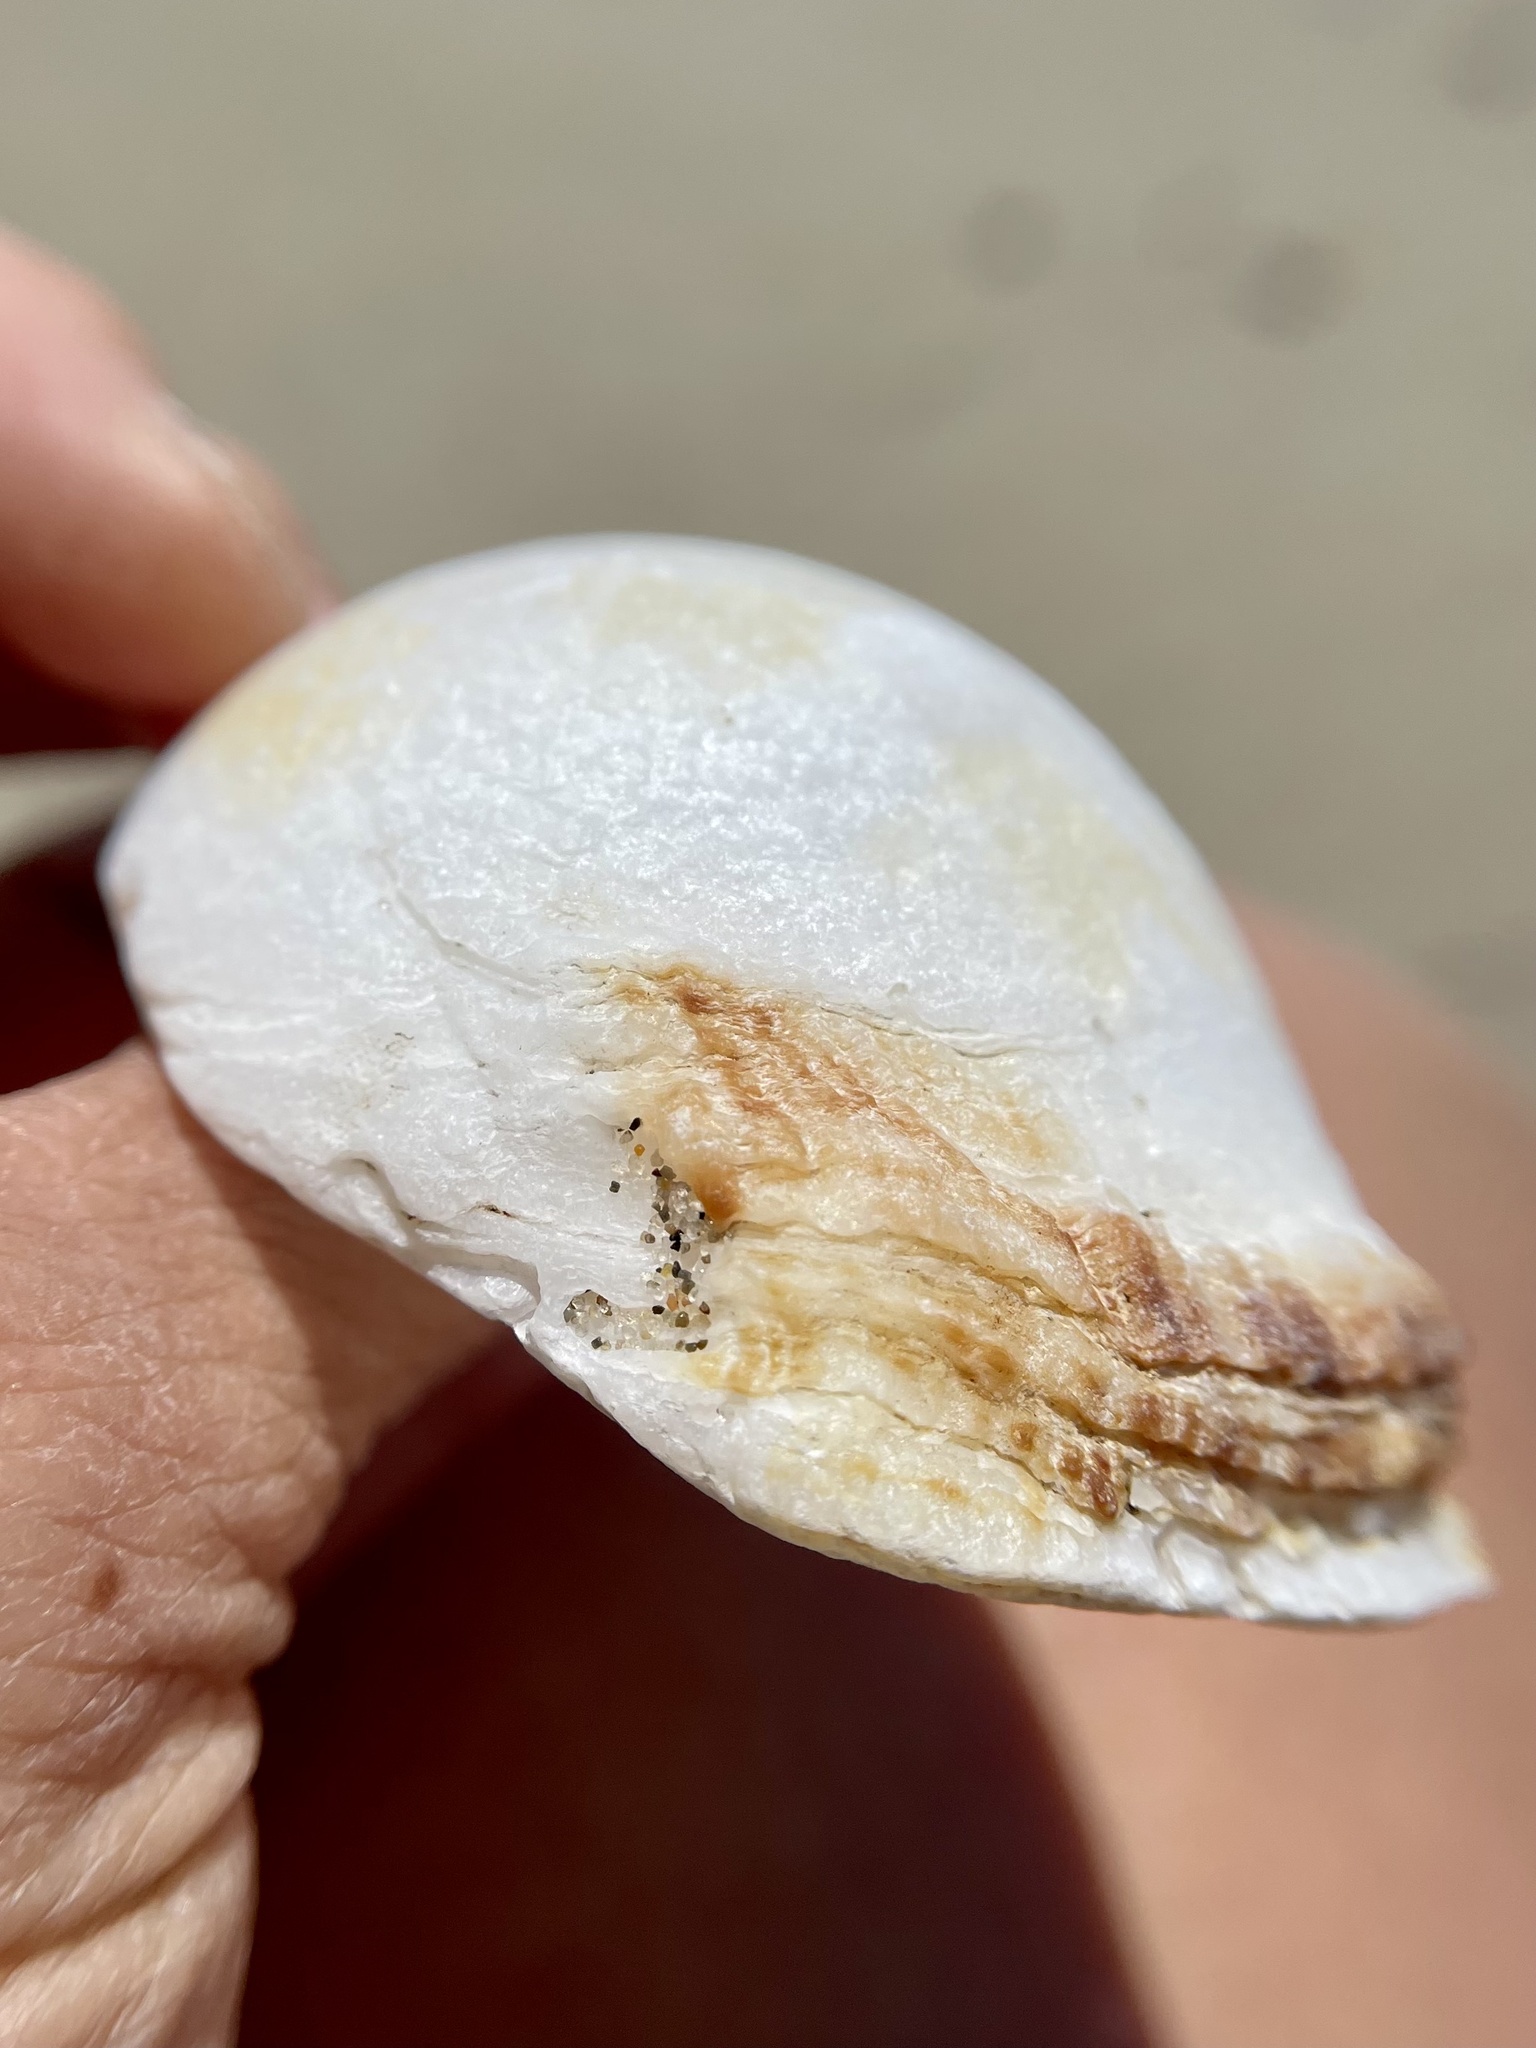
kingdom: Animalia
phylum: Mollusca
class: Bivalvia
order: Pectinida
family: Pectinidae
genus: Crassadoma
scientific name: Crassadoma gigantea
